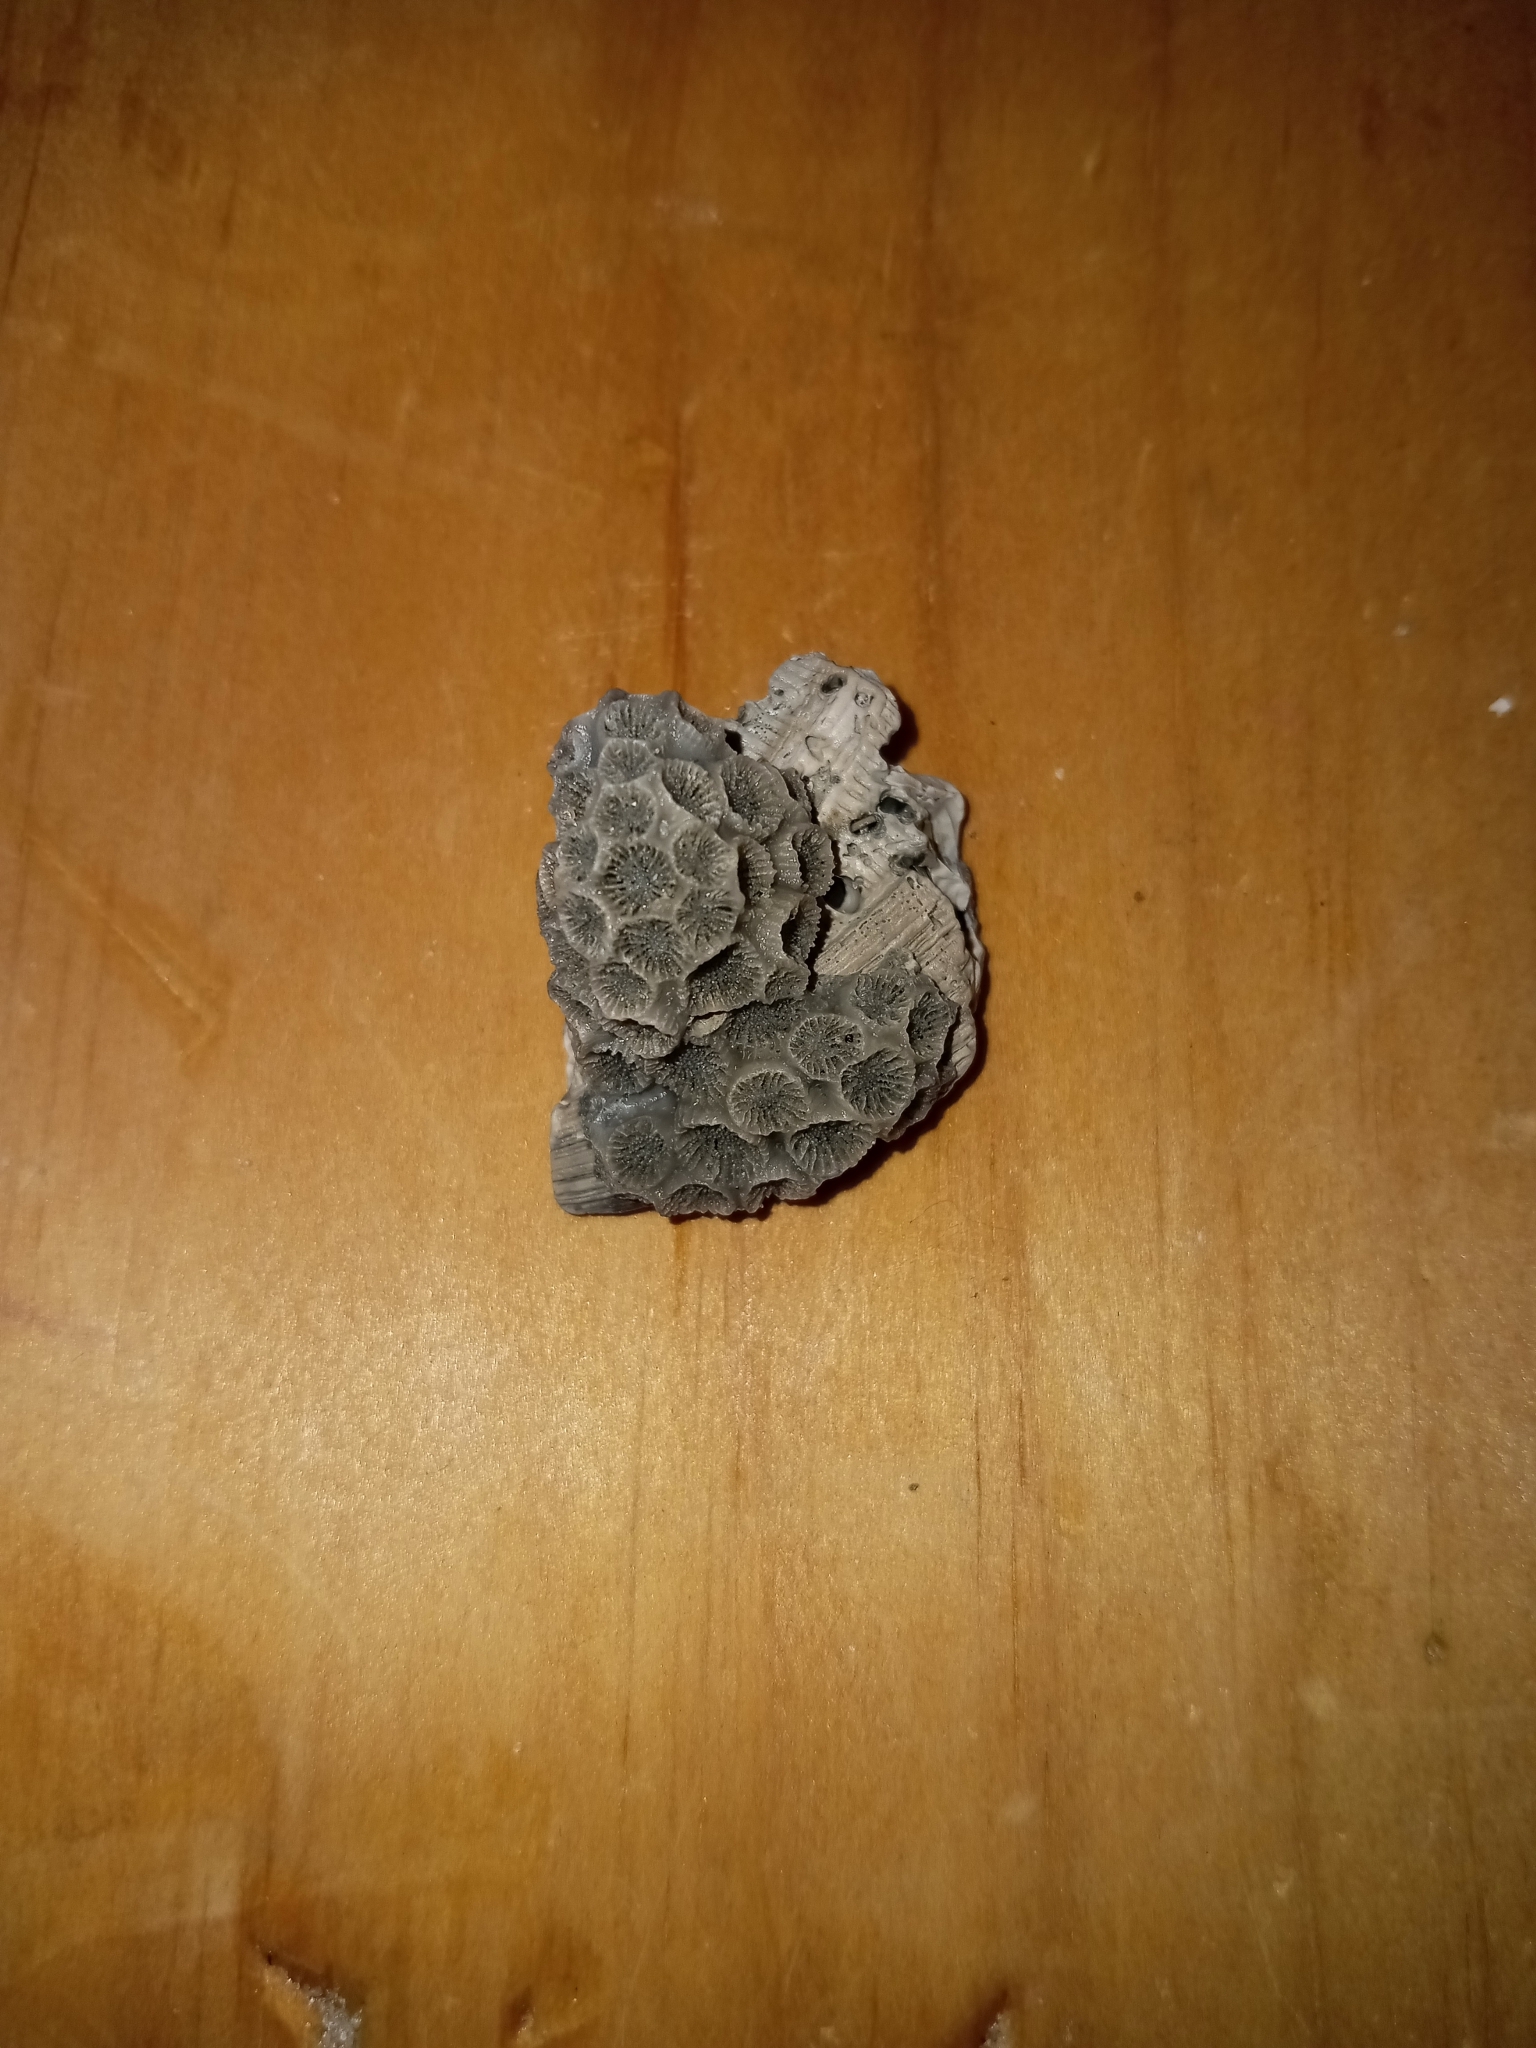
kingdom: Animalia
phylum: Cnidaria
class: Anthozoa
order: Scleractinia
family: Astrangiidae
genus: Astrangia
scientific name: Astrangia poculata
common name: Northern star coral
